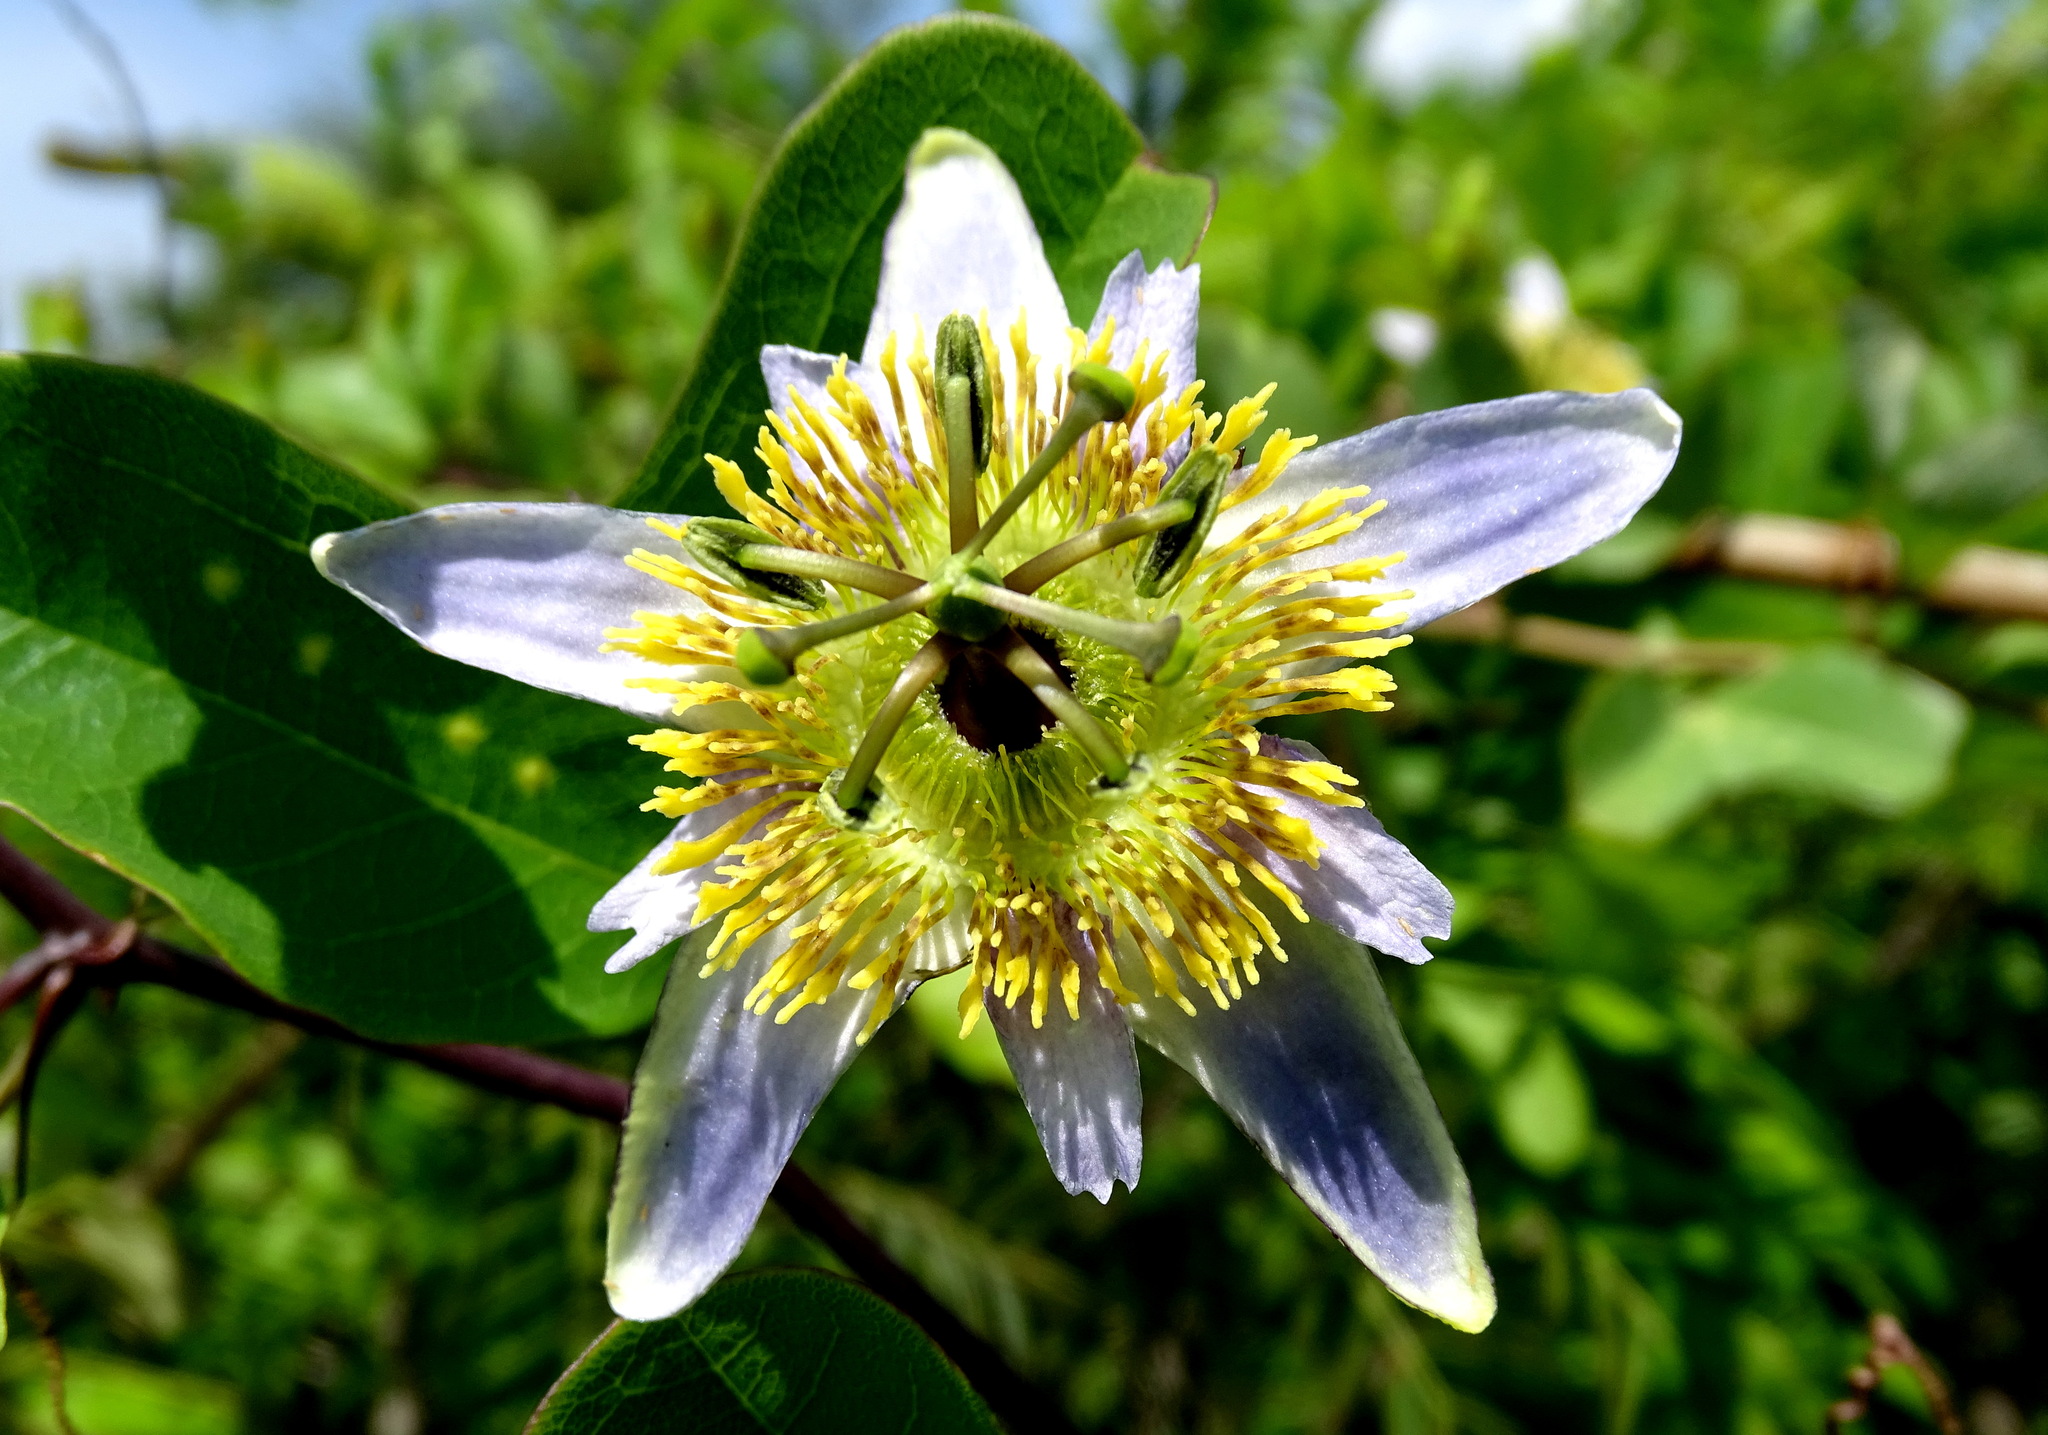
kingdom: Plantae
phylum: Tracheophyta
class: Magnoliopsida
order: Malpighiales
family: Passifloraceae
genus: Passiflora
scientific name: Passiflora bicornis
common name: Wingleaf passionflower
